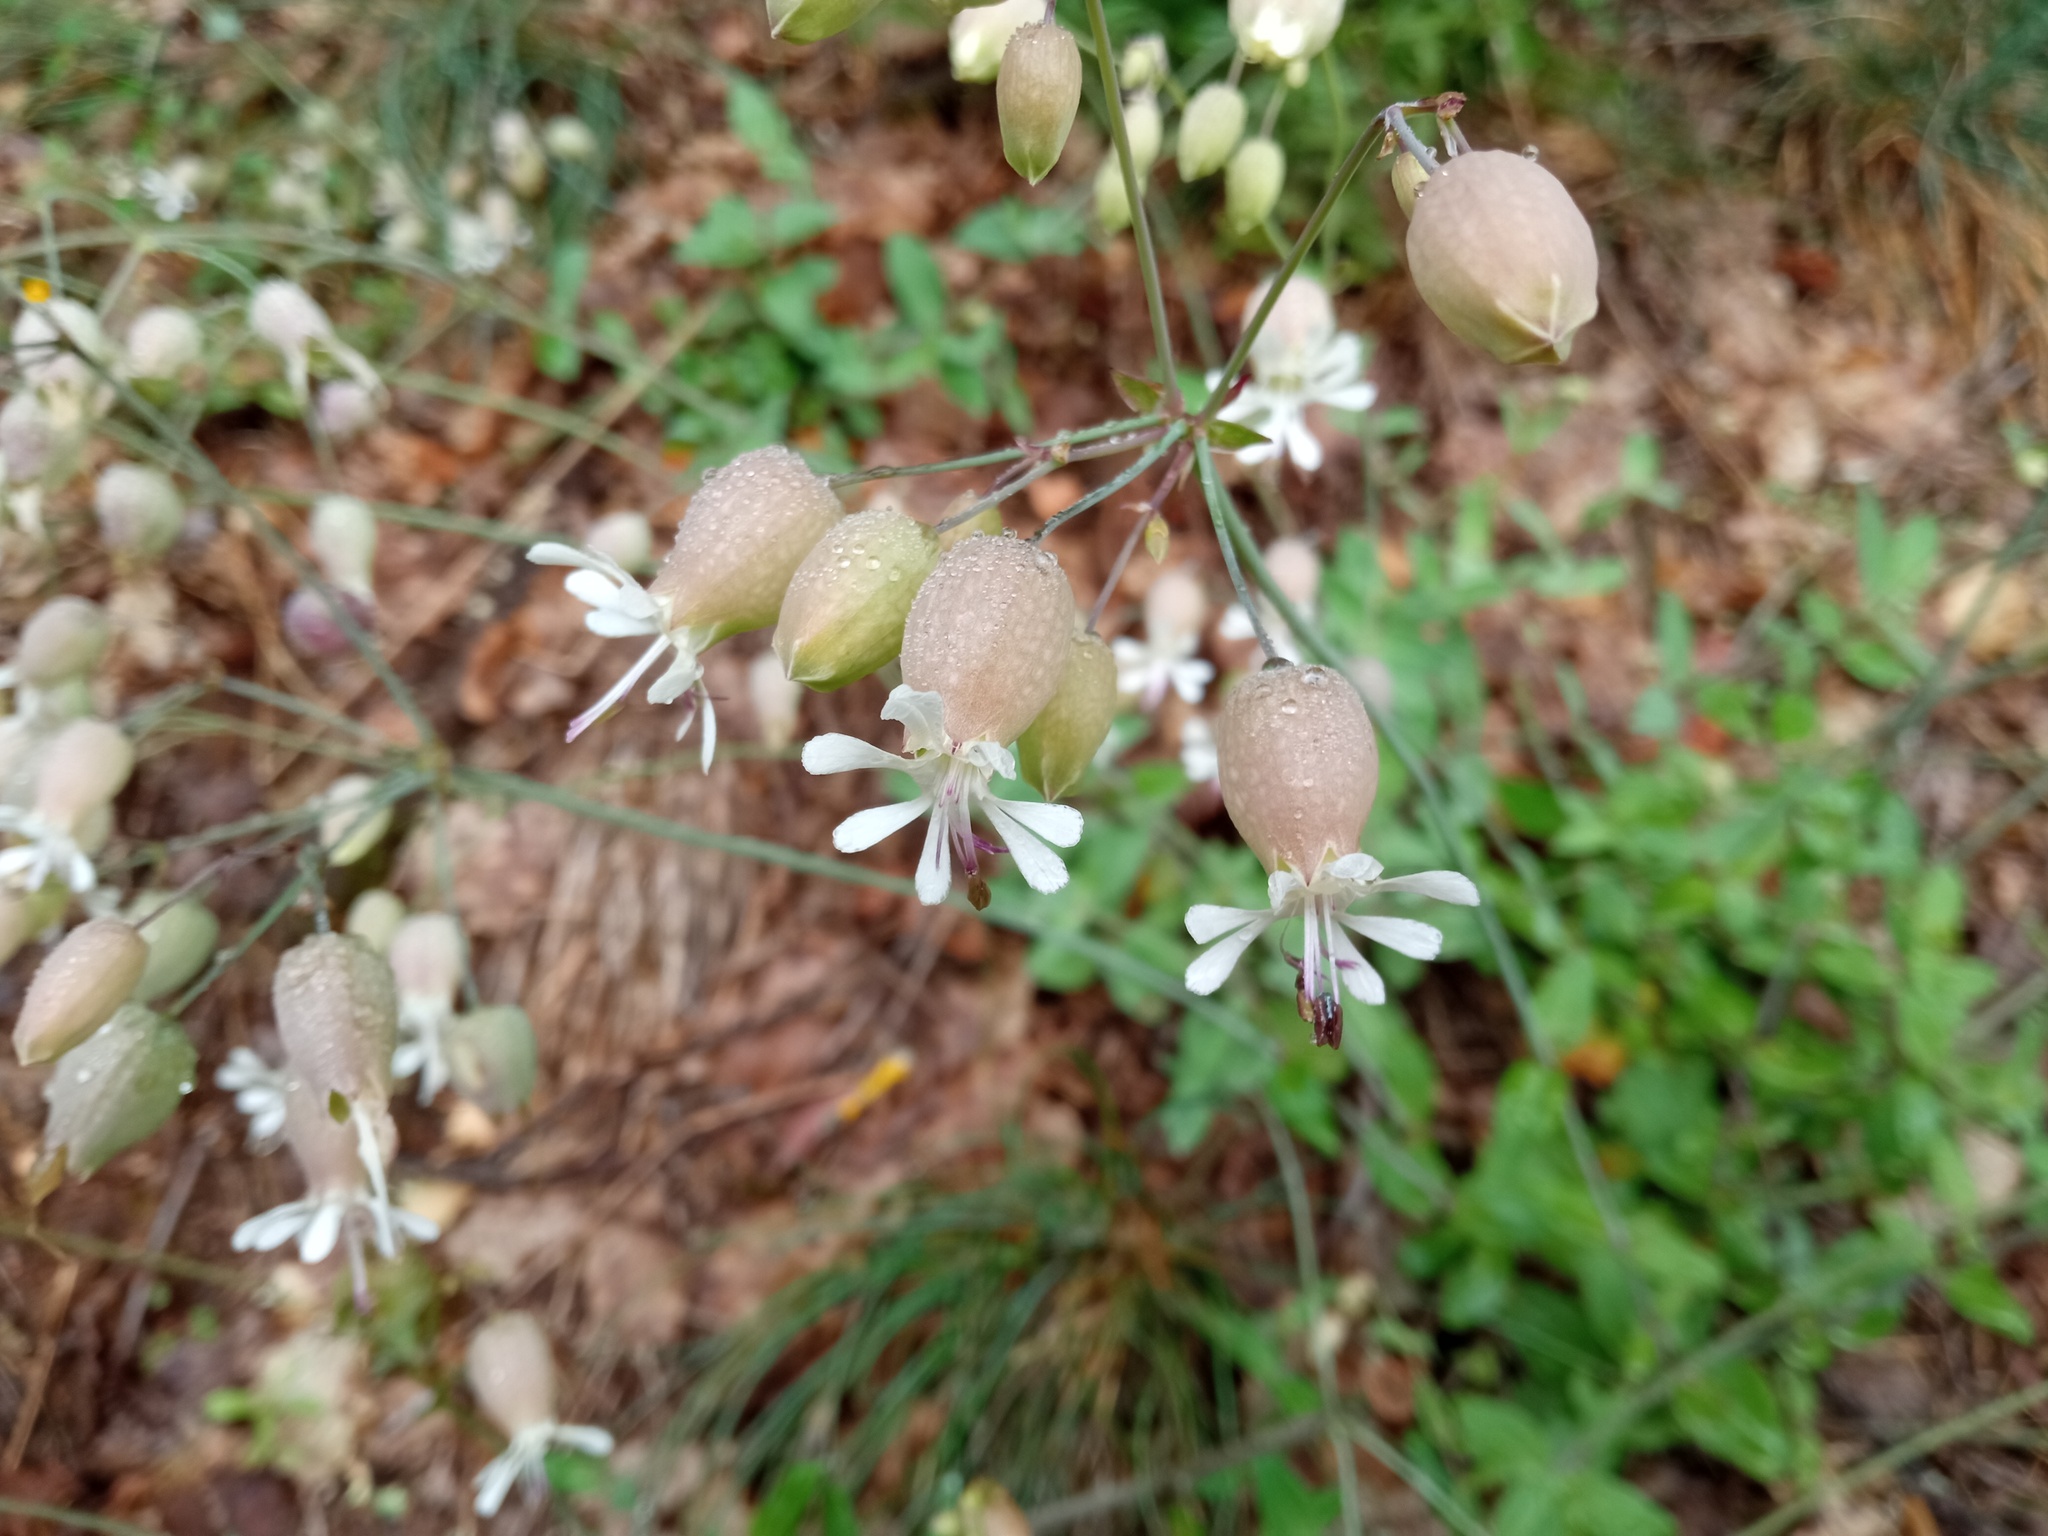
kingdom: Plantae
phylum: Tracheophyta
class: Magnoliopsida
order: Caryophyllales
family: Caryophyllaceae
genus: Silene
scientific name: Silene vulgaris
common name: Bladder campion
